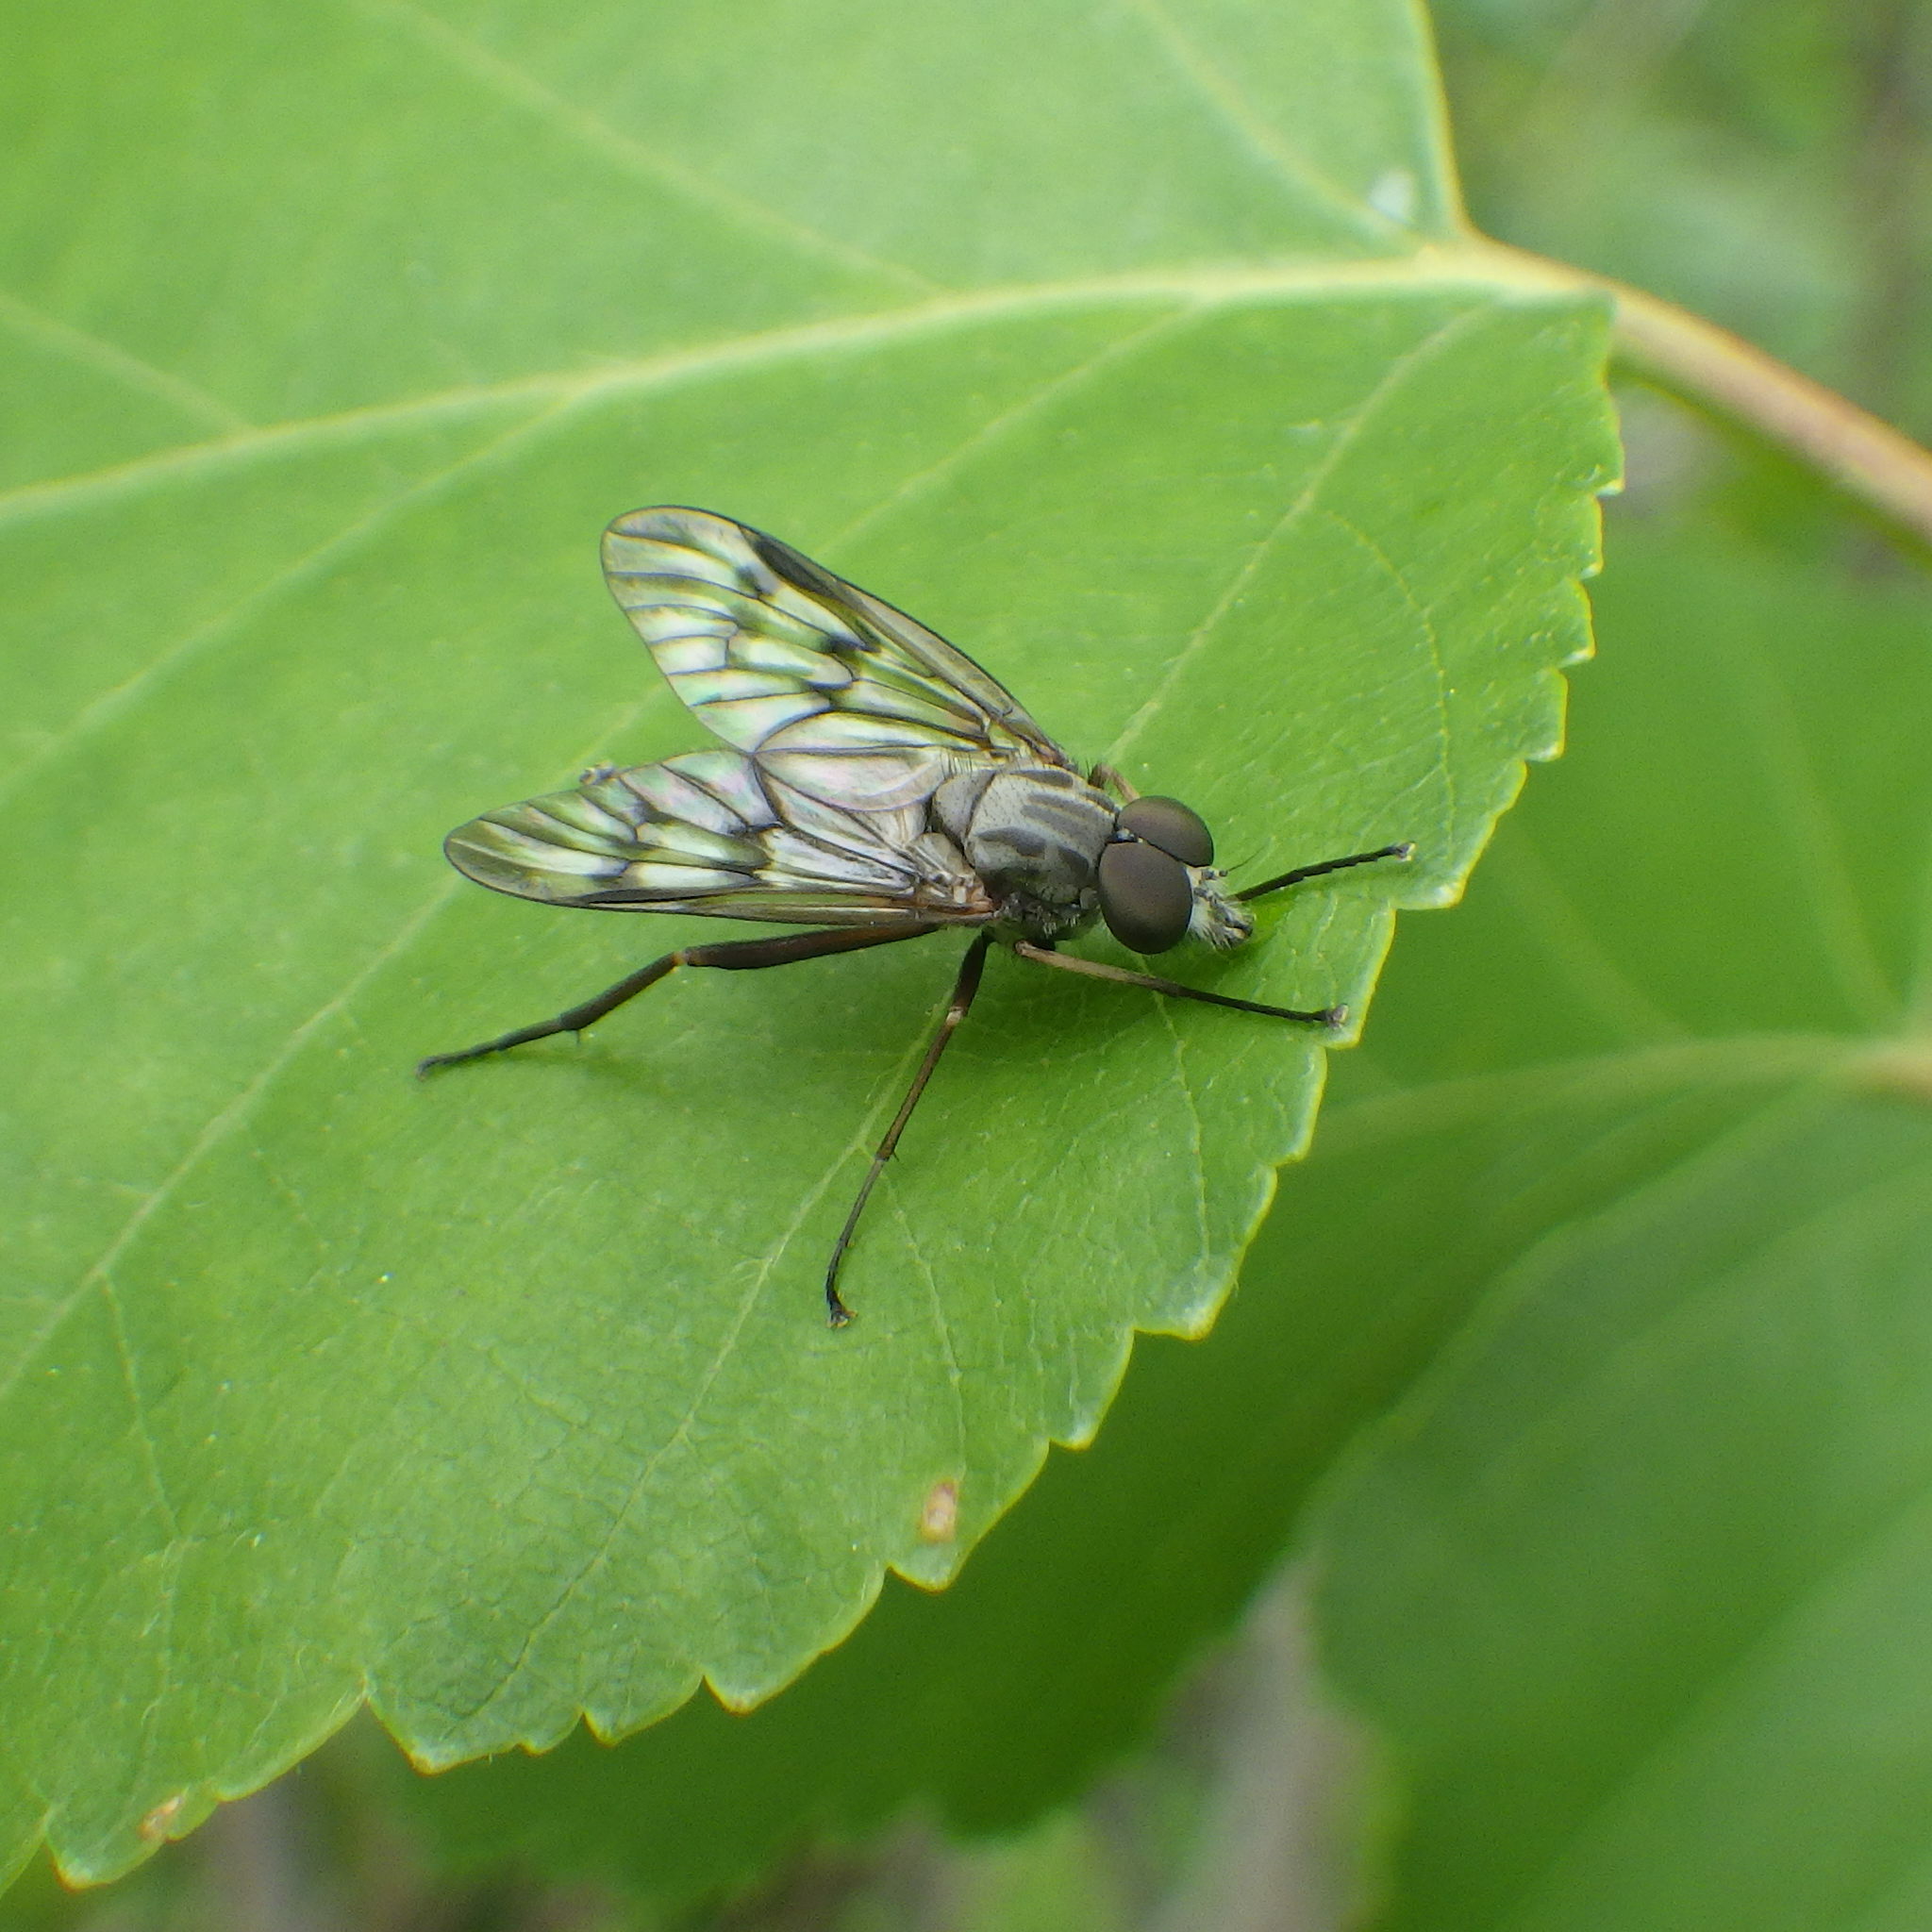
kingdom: Animalia
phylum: Arthropoda
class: Insecta
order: Diptera
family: Rhagionidae
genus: Rhagio
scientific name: Rhagio mystaceus
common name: Common snipe fly
